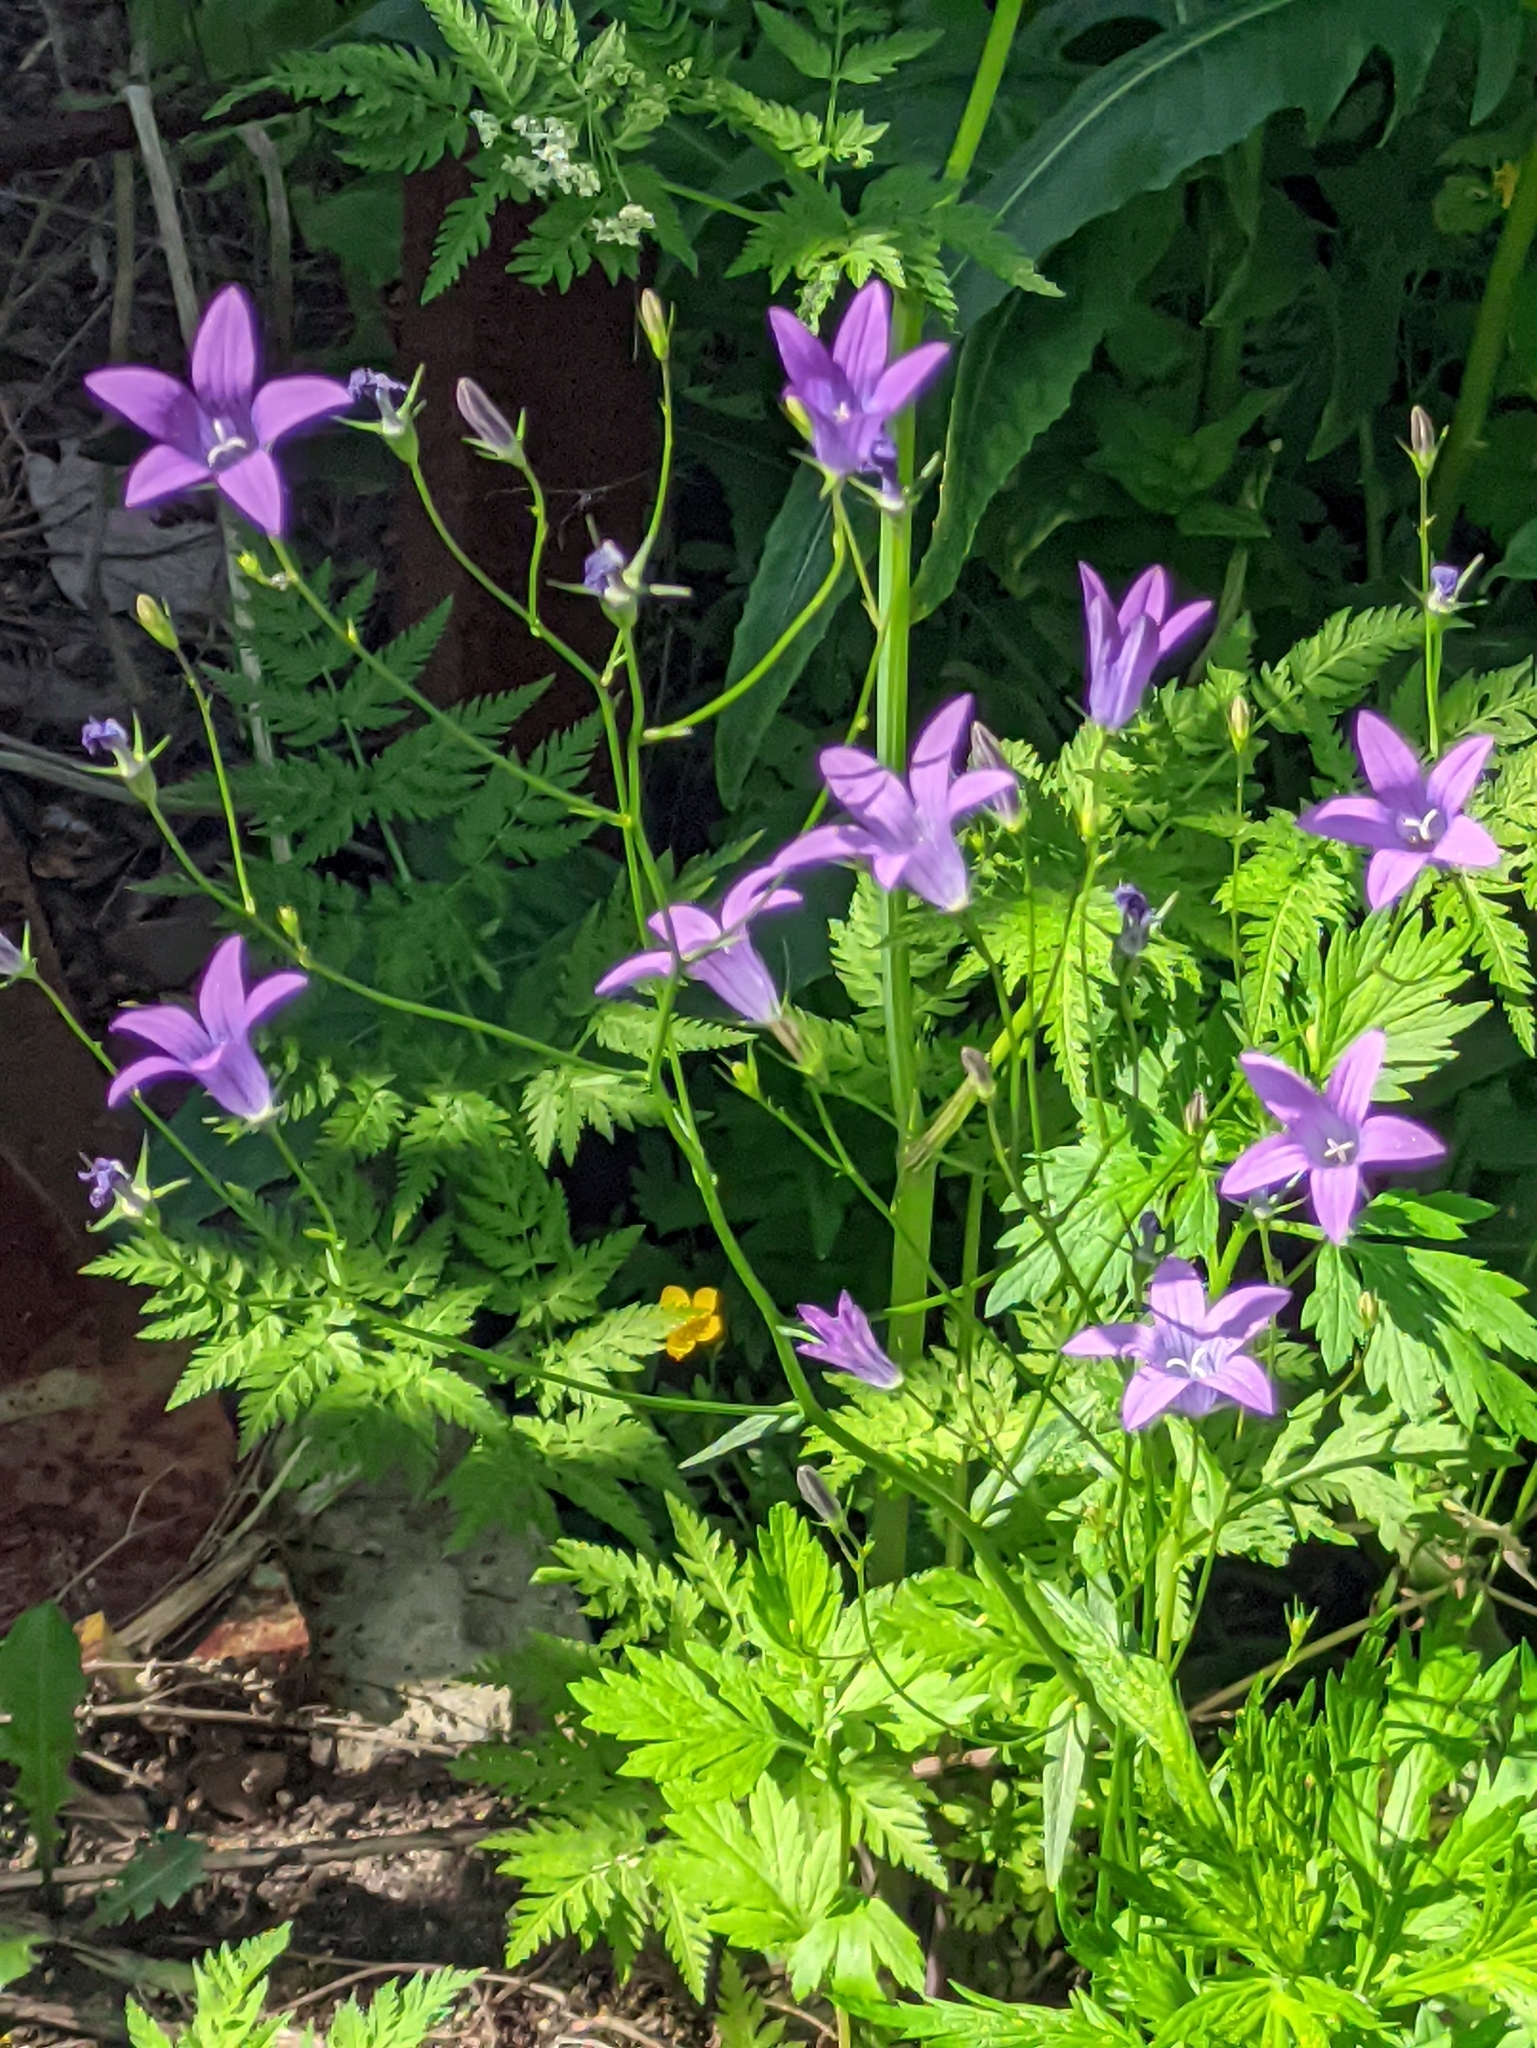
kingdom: Plantae
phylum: Tracheophyta
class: Magnoliopsida
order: Asterales
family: Campanulaceae
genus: Campanula
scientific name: Campanula patula
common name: Spreading bellflower
